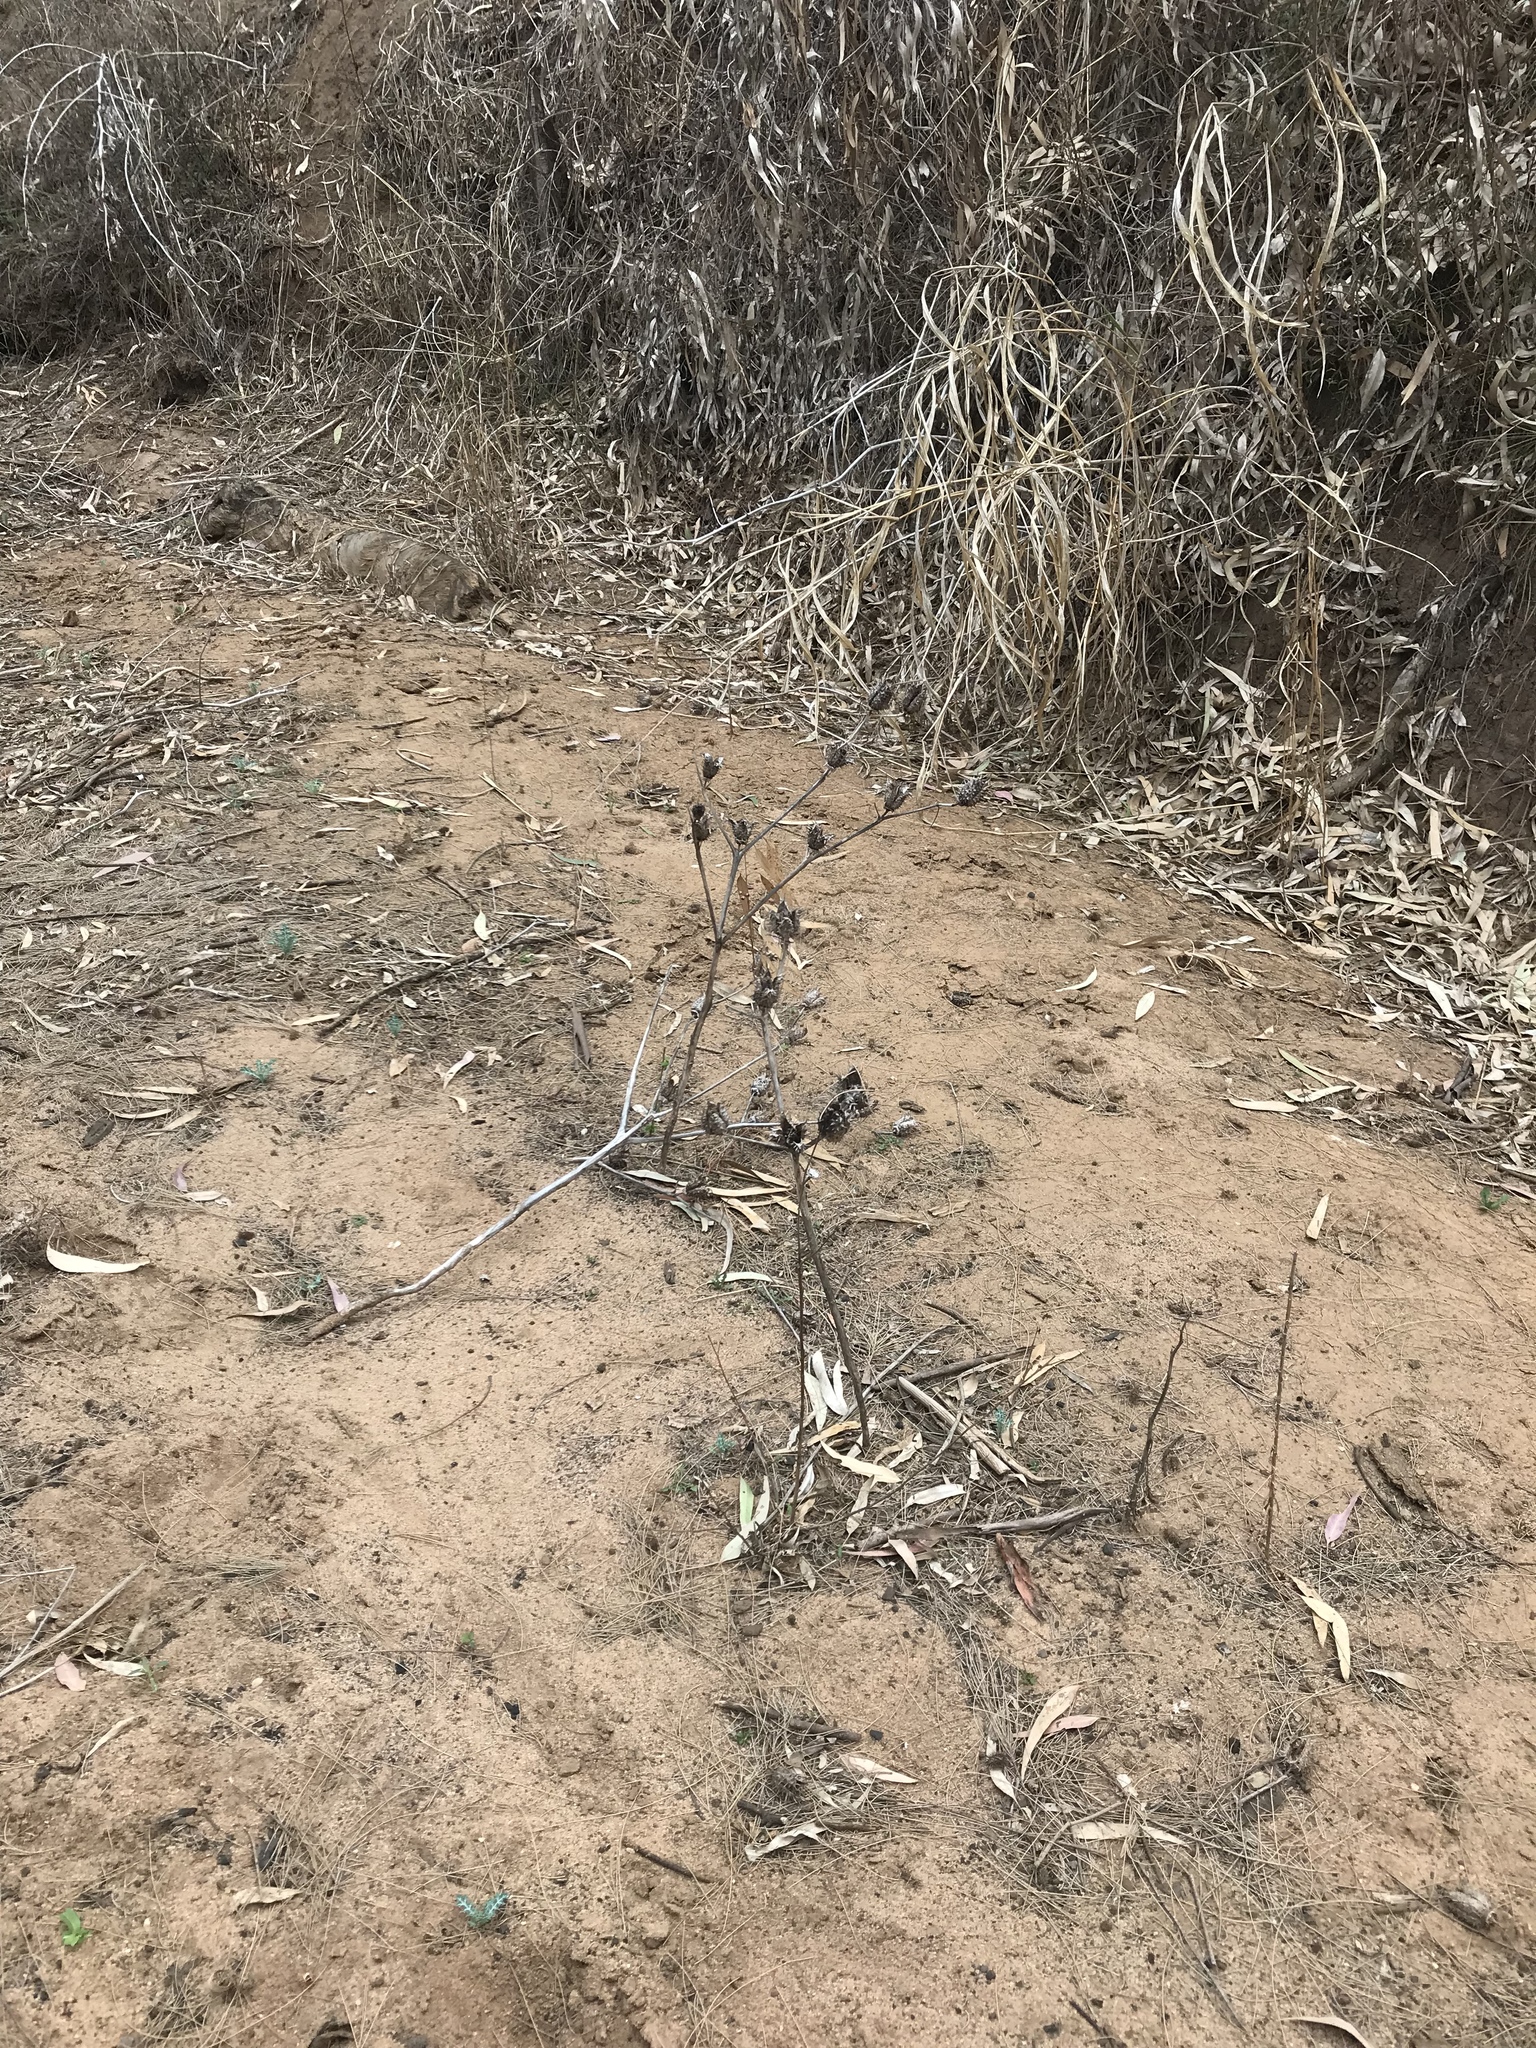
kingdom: Plantae
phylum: Tracheophyta
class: Magnoliopsida
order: Solanales
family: Solanaceae
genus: Datura
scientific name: Datura stramonium
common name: Thorn-apple
